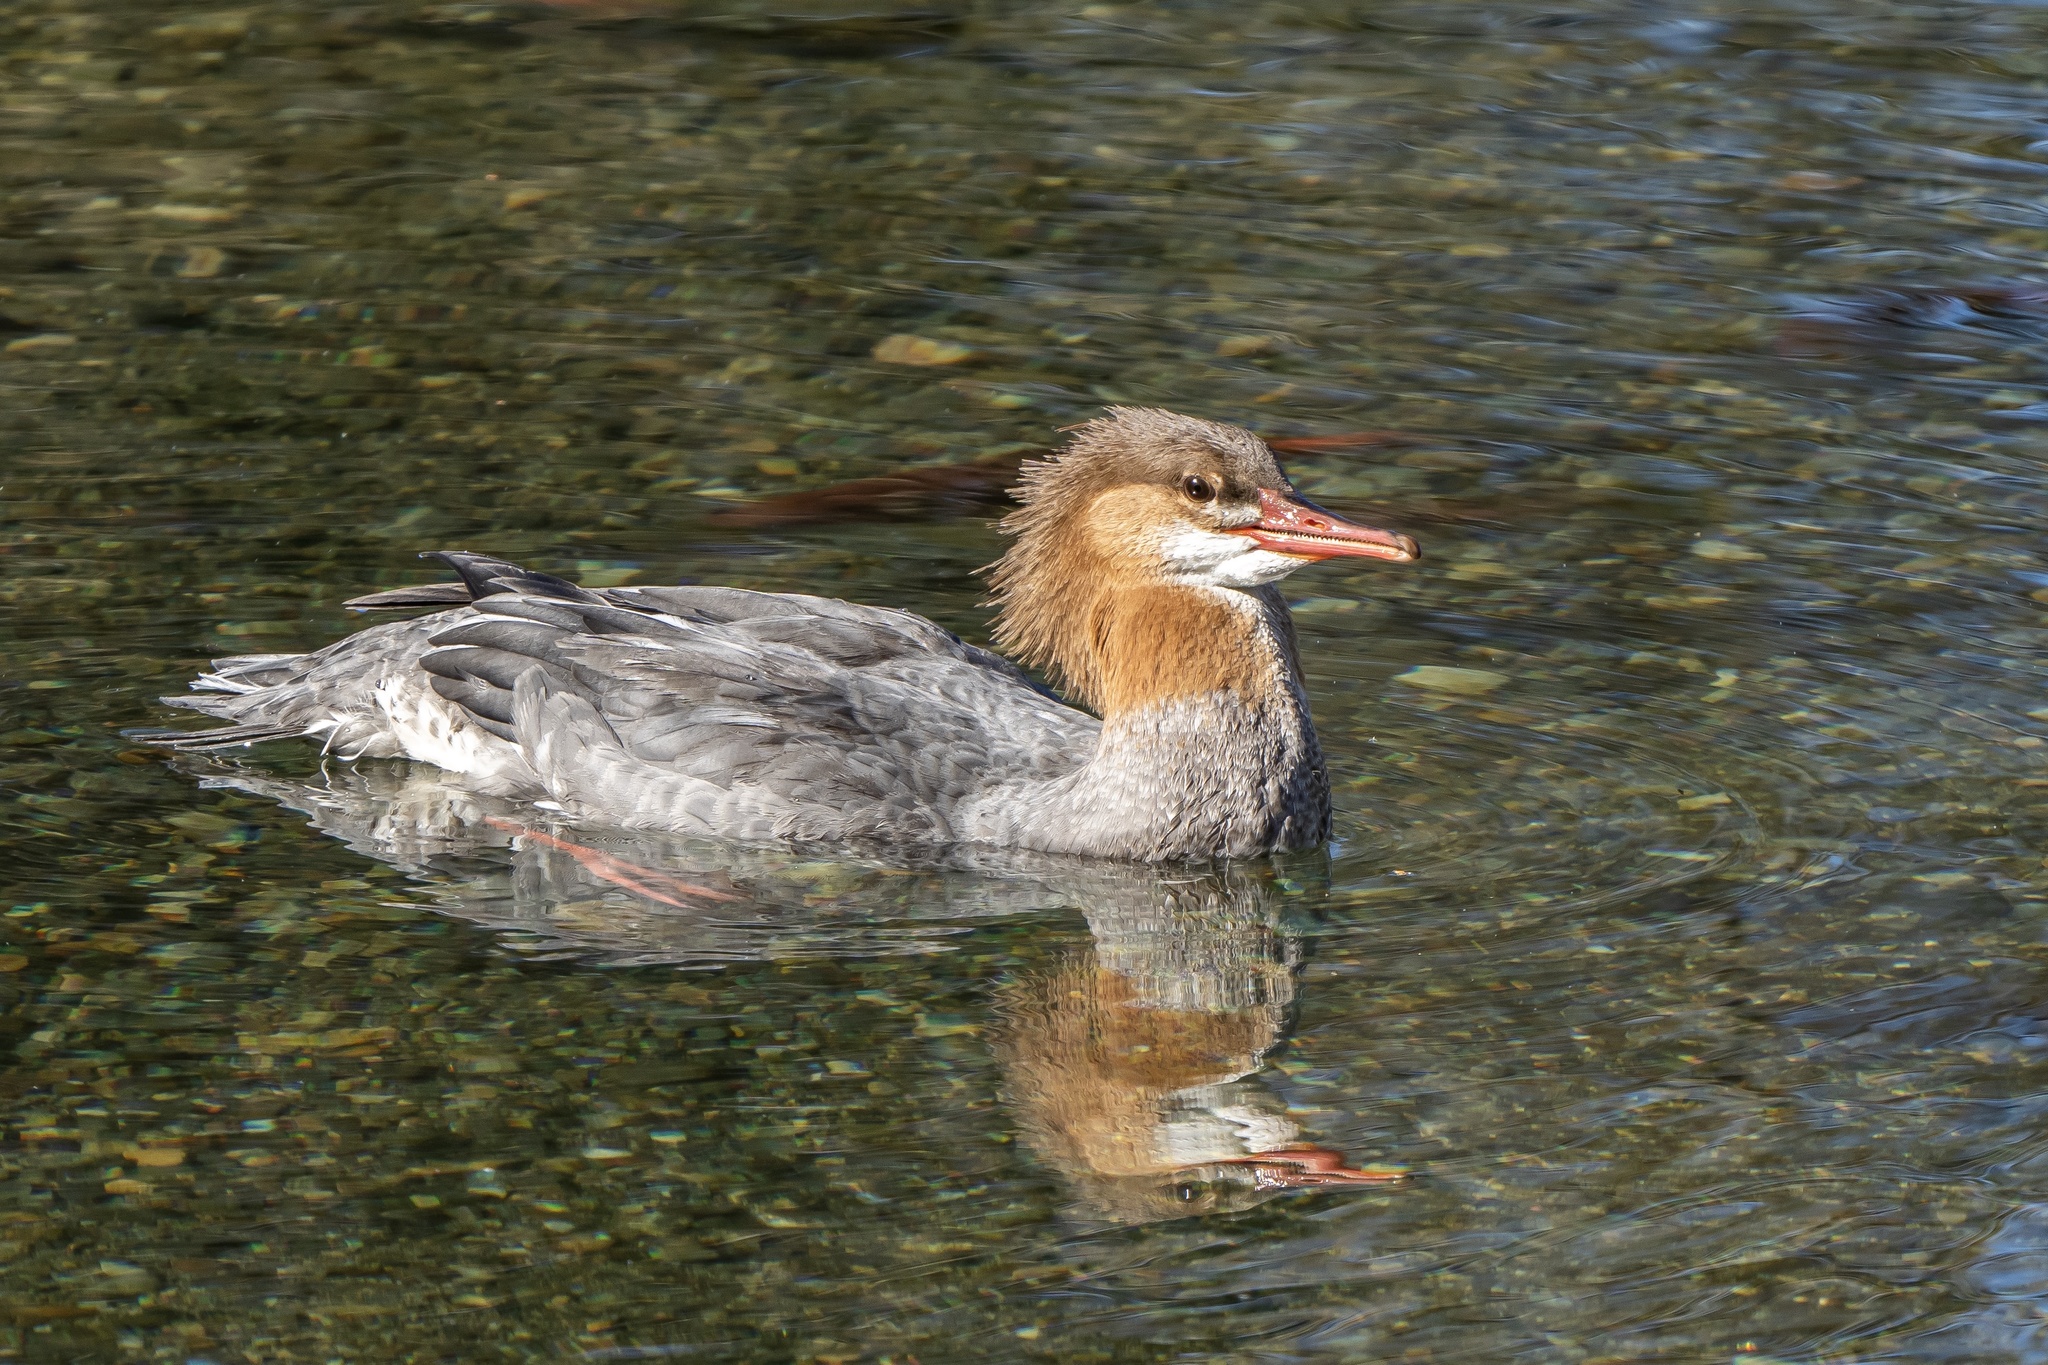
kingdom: Animalia
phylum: Chordata
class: Aves
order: Anseriformes
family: Anatidae
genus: Mergus
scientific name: Mergus merganser
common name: Common merganser
